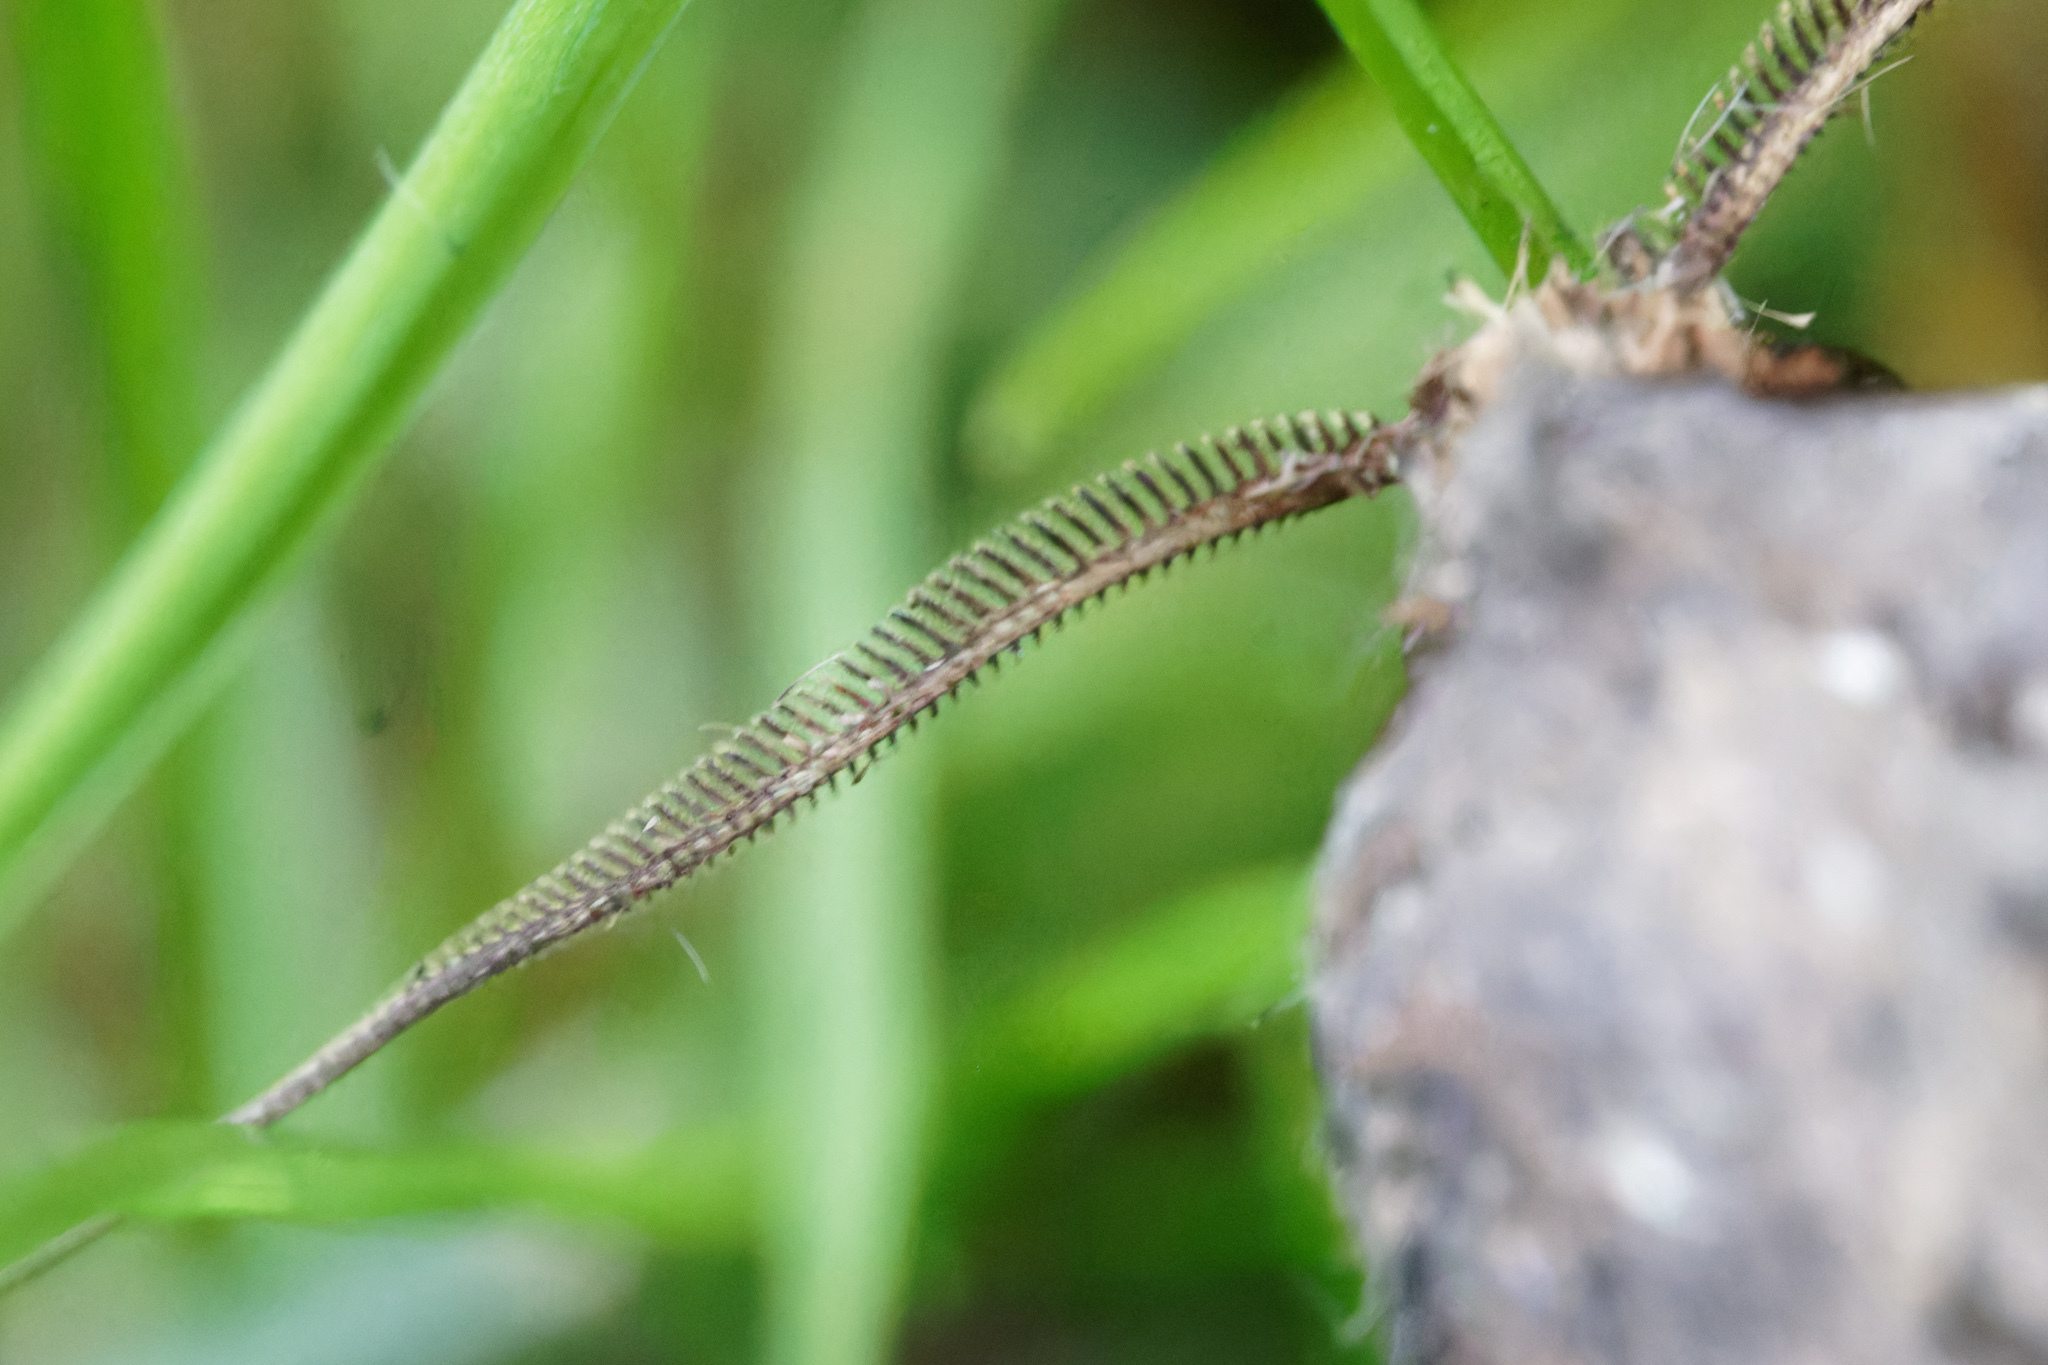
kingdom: Animalia
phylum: Arthropoda
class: Insecta
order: Lepidoptera
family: Noctuidae
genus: Agrotis
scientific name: Agrotis ipsilon
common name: Dark sword-grass
